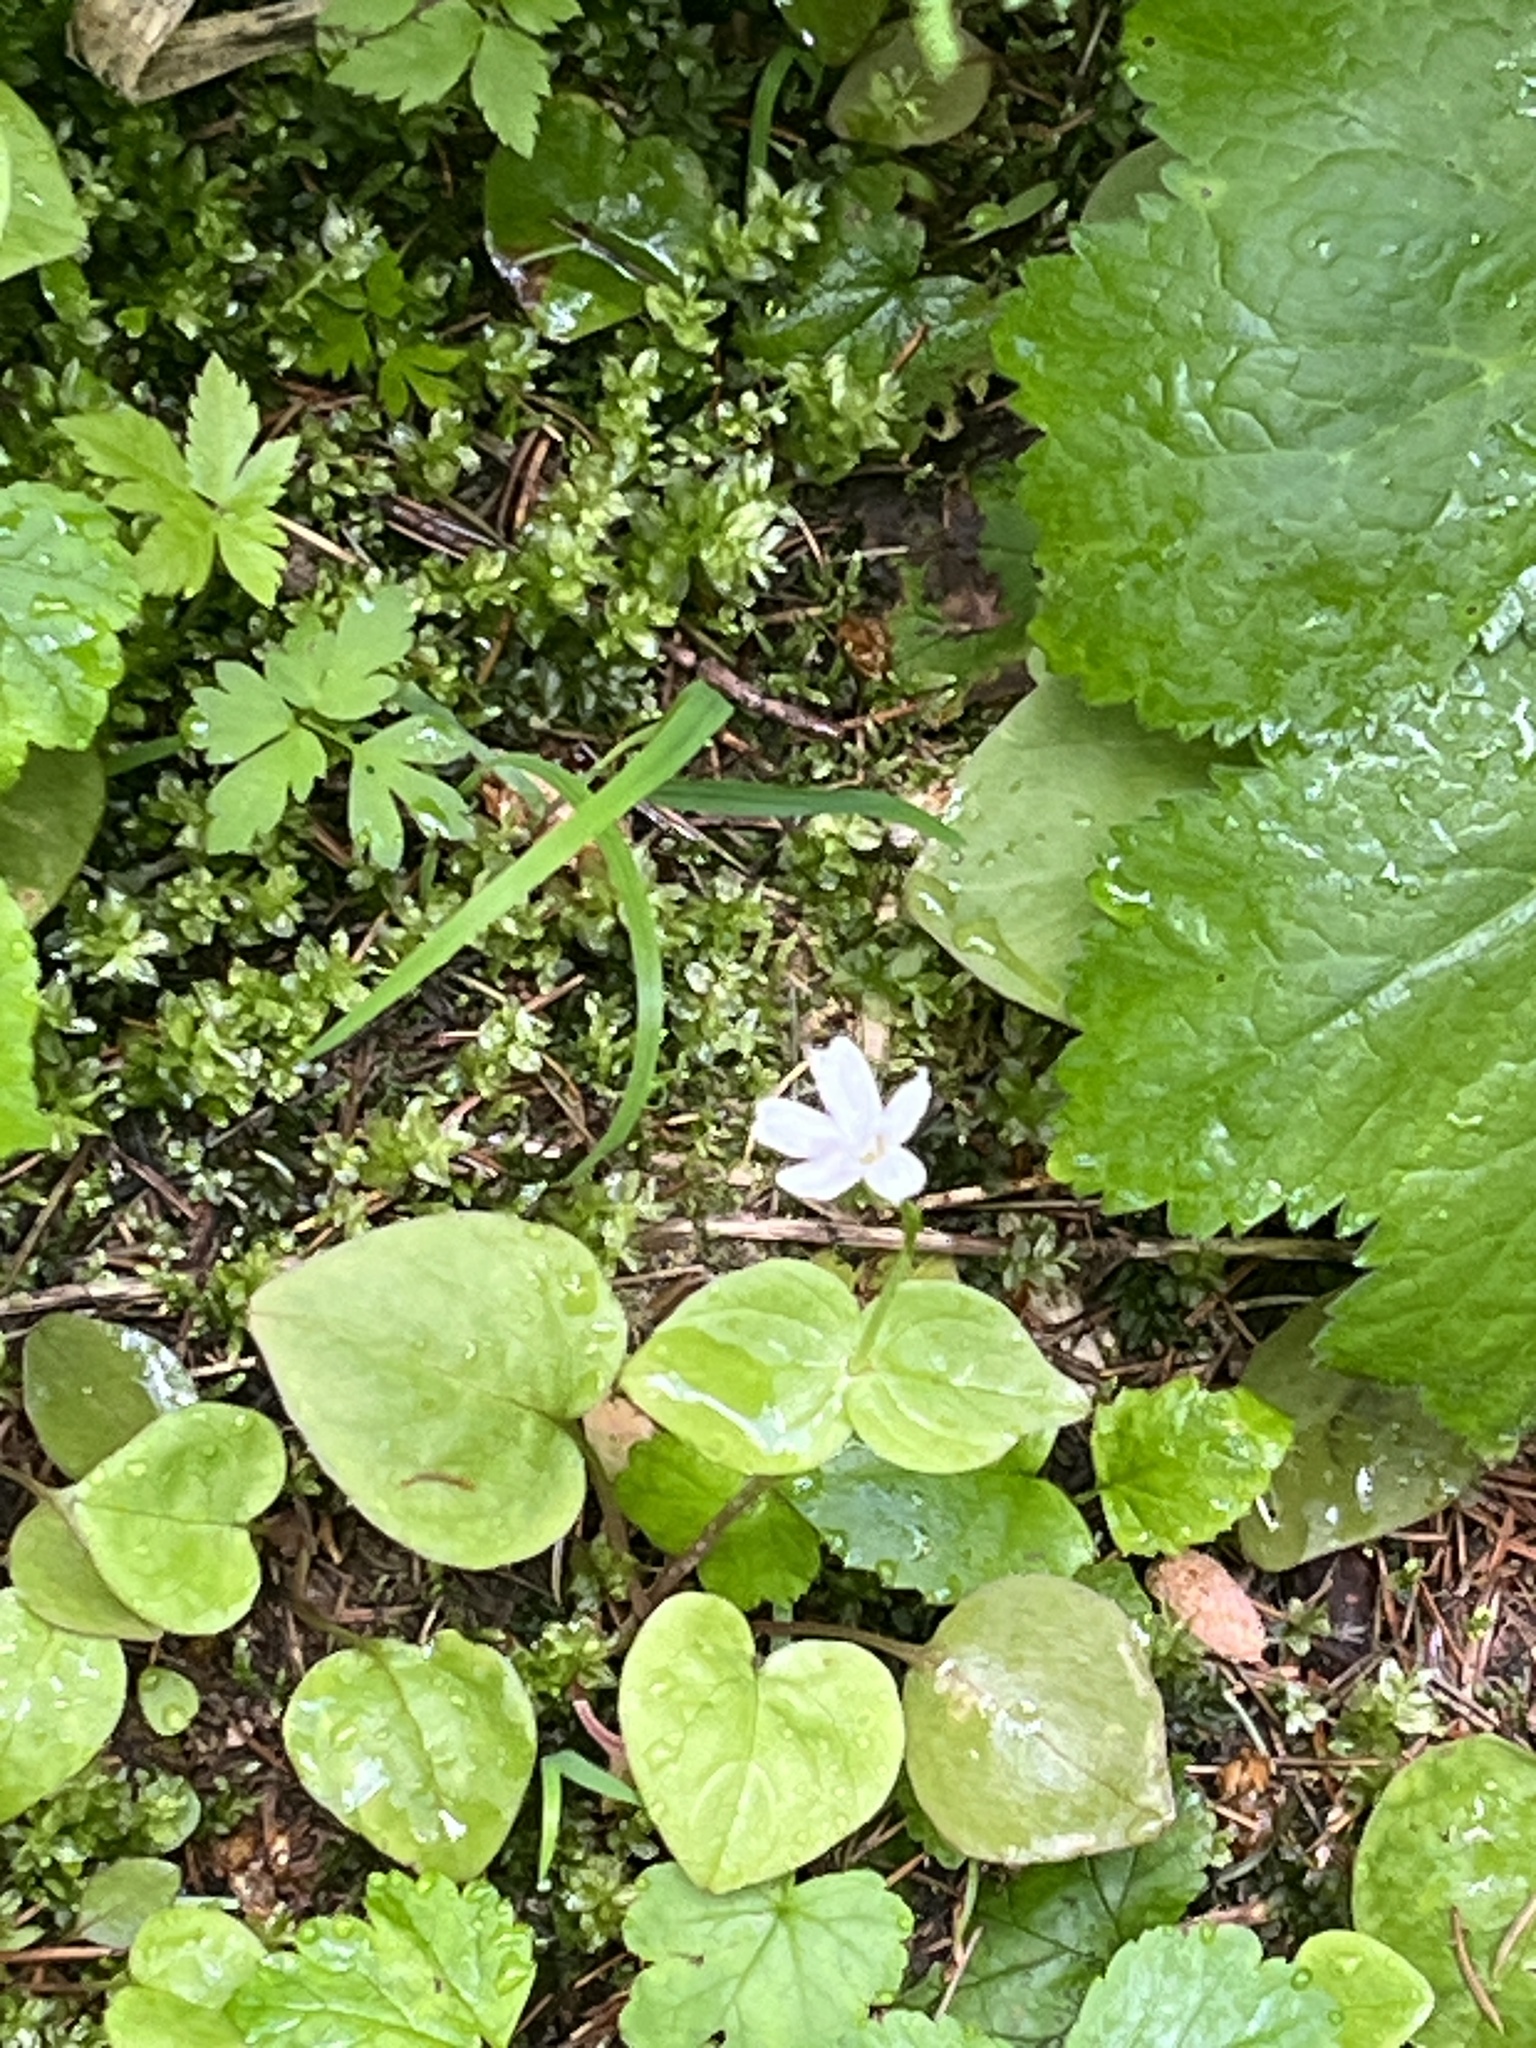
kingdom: Plantae
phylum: Tracheophyta
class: Magnoliopsida
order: Caryophyllales
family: Montiaceae
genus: Claytonia
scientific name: Claytonia cordifolia
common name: Broad-leaved spring beauty
